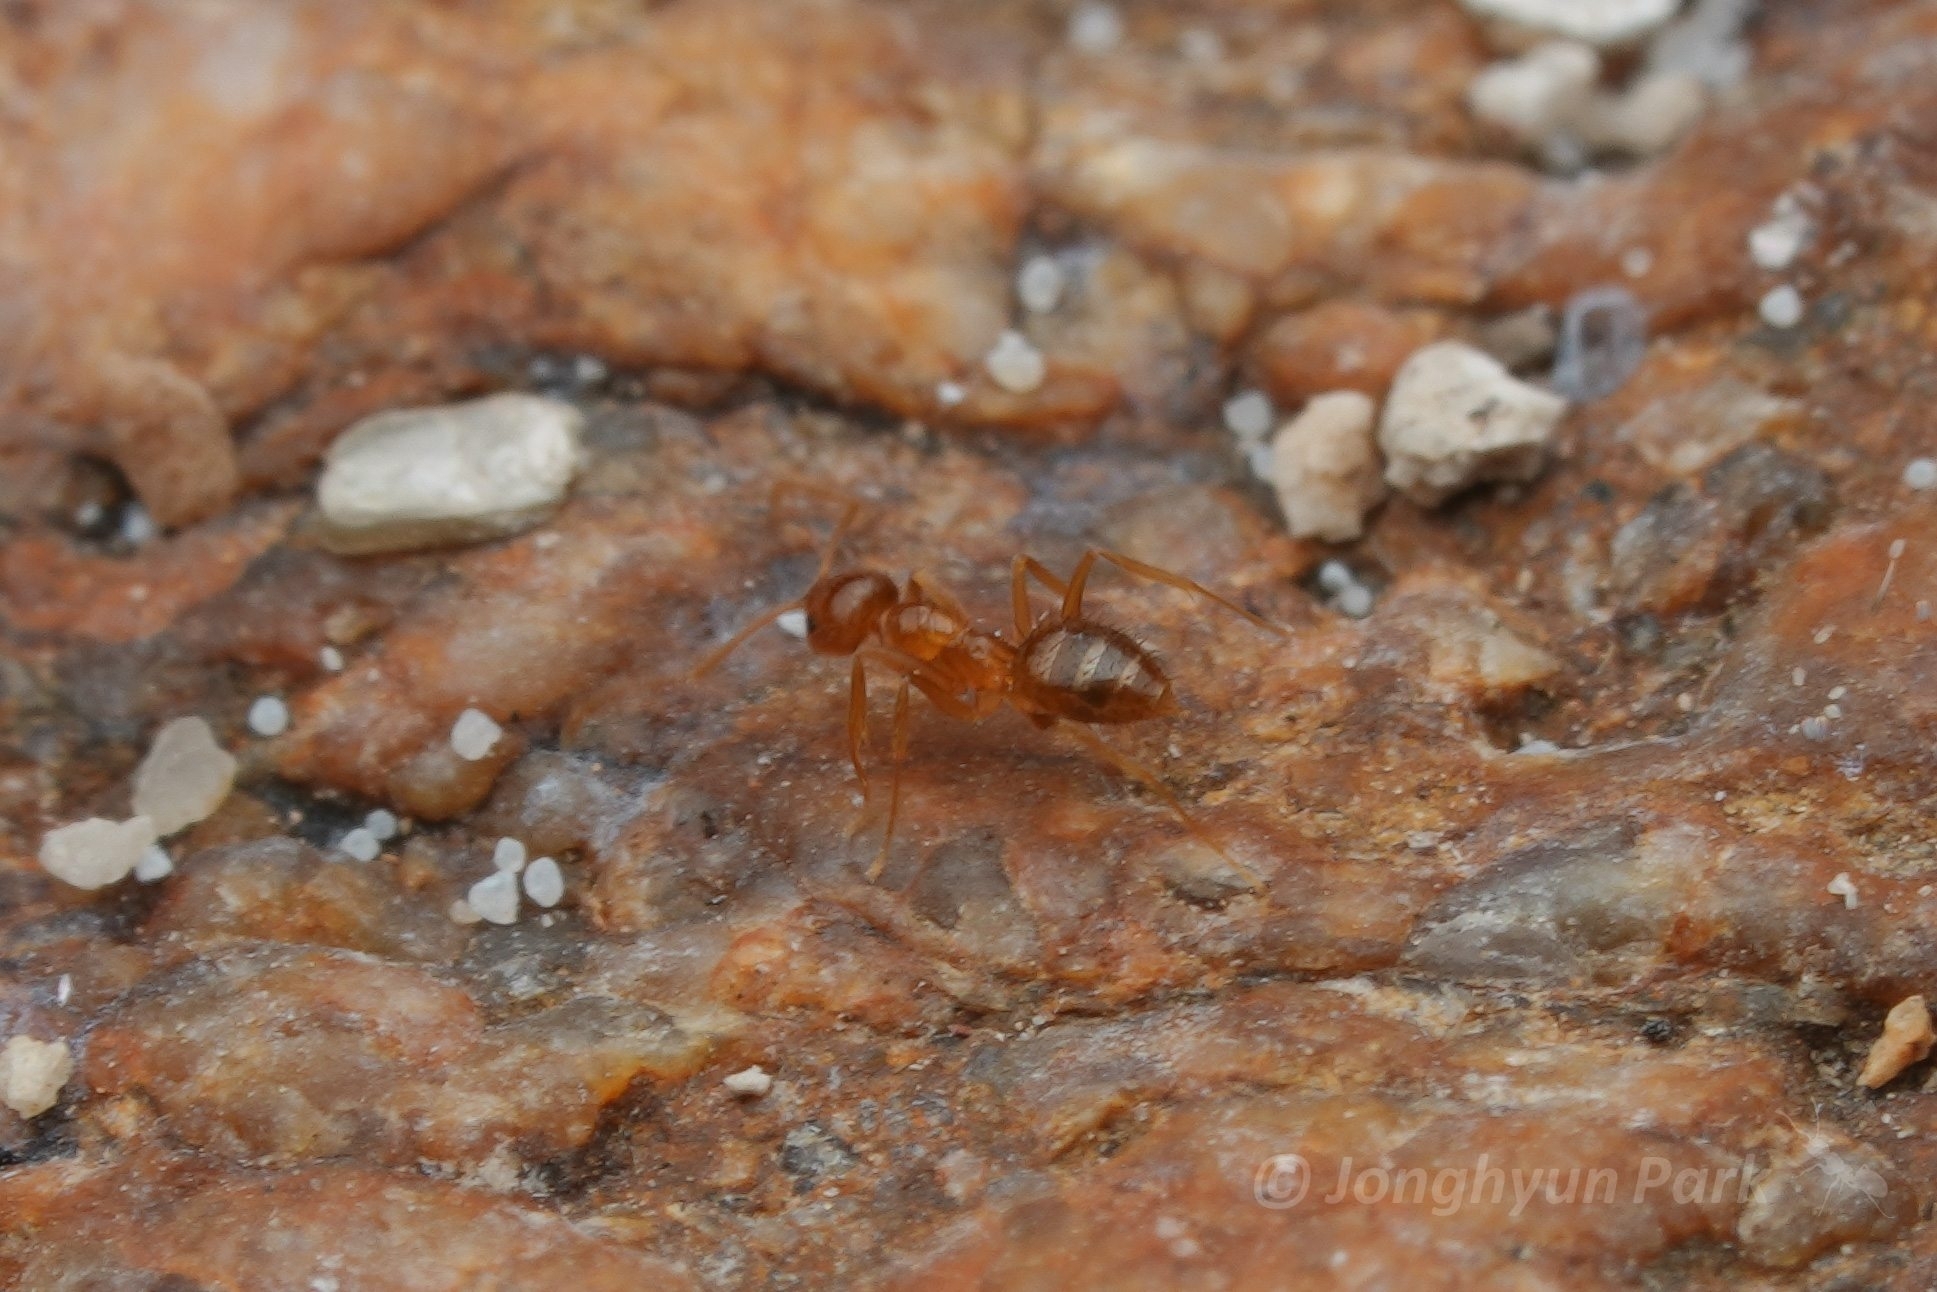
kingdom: Animalia
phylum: Arthropoda
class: Insecta
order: Hymenoptera
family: Formicidae
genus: Nylanderia
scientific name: Nylanderia terricola
